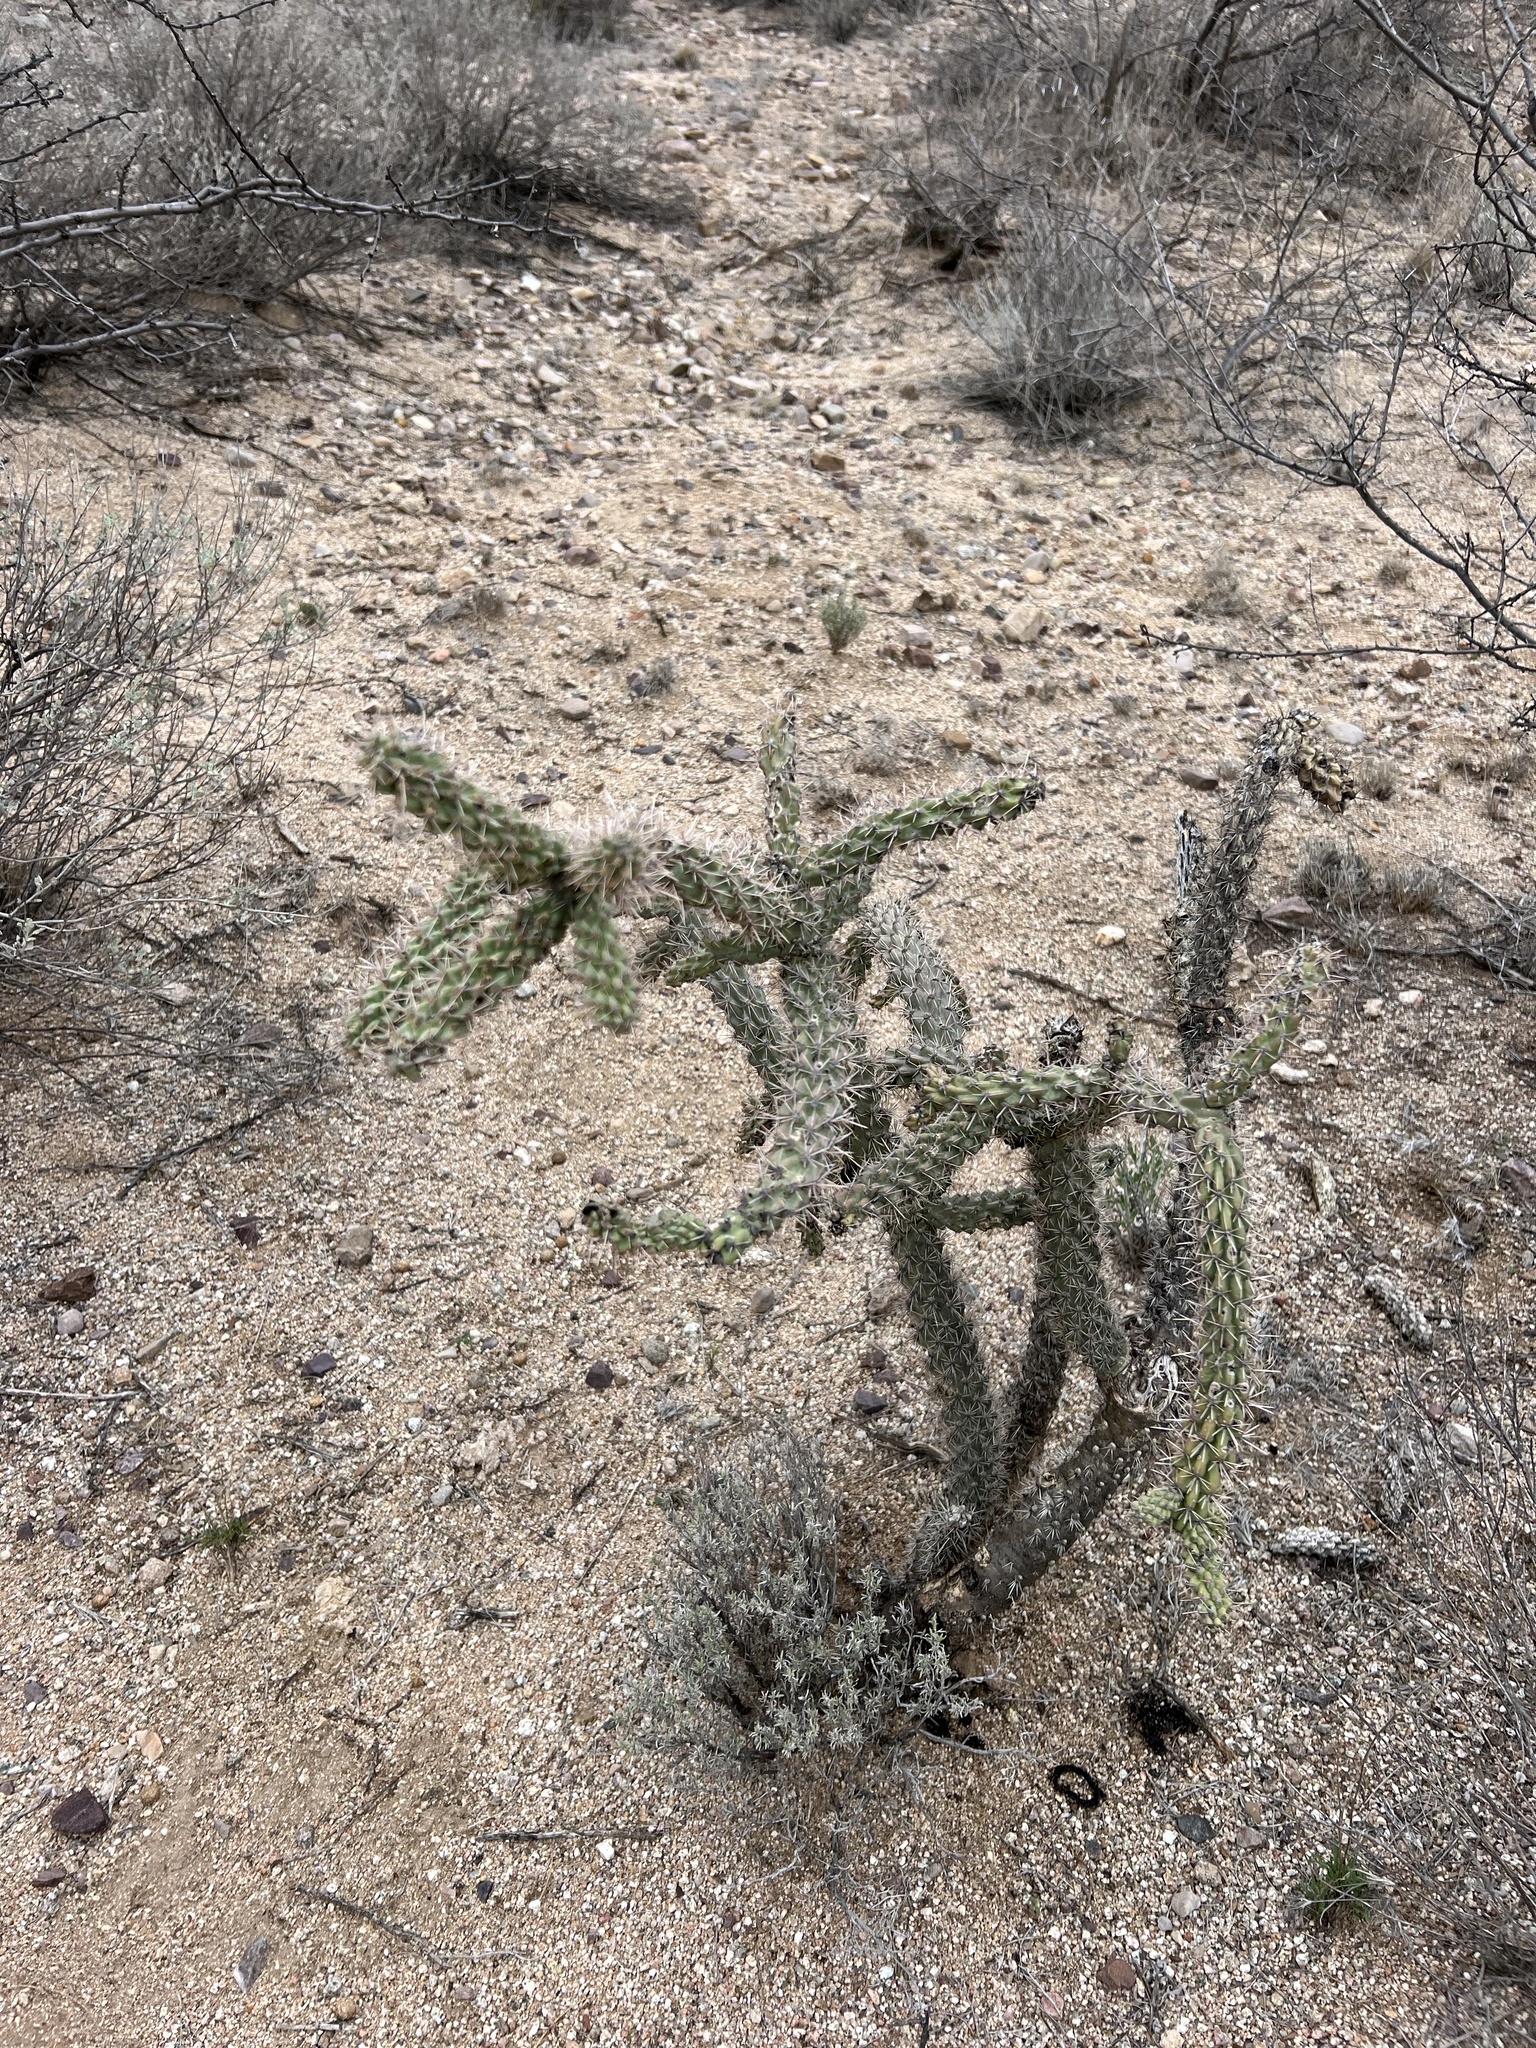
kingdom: Plantae
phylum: Tracheophyta
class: Magnoliopsida
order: Caryophyllales
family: Cactaceae
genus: Cylindropuntia
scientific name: Cylindropuntia imbricata
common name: Candelabrum cactus
